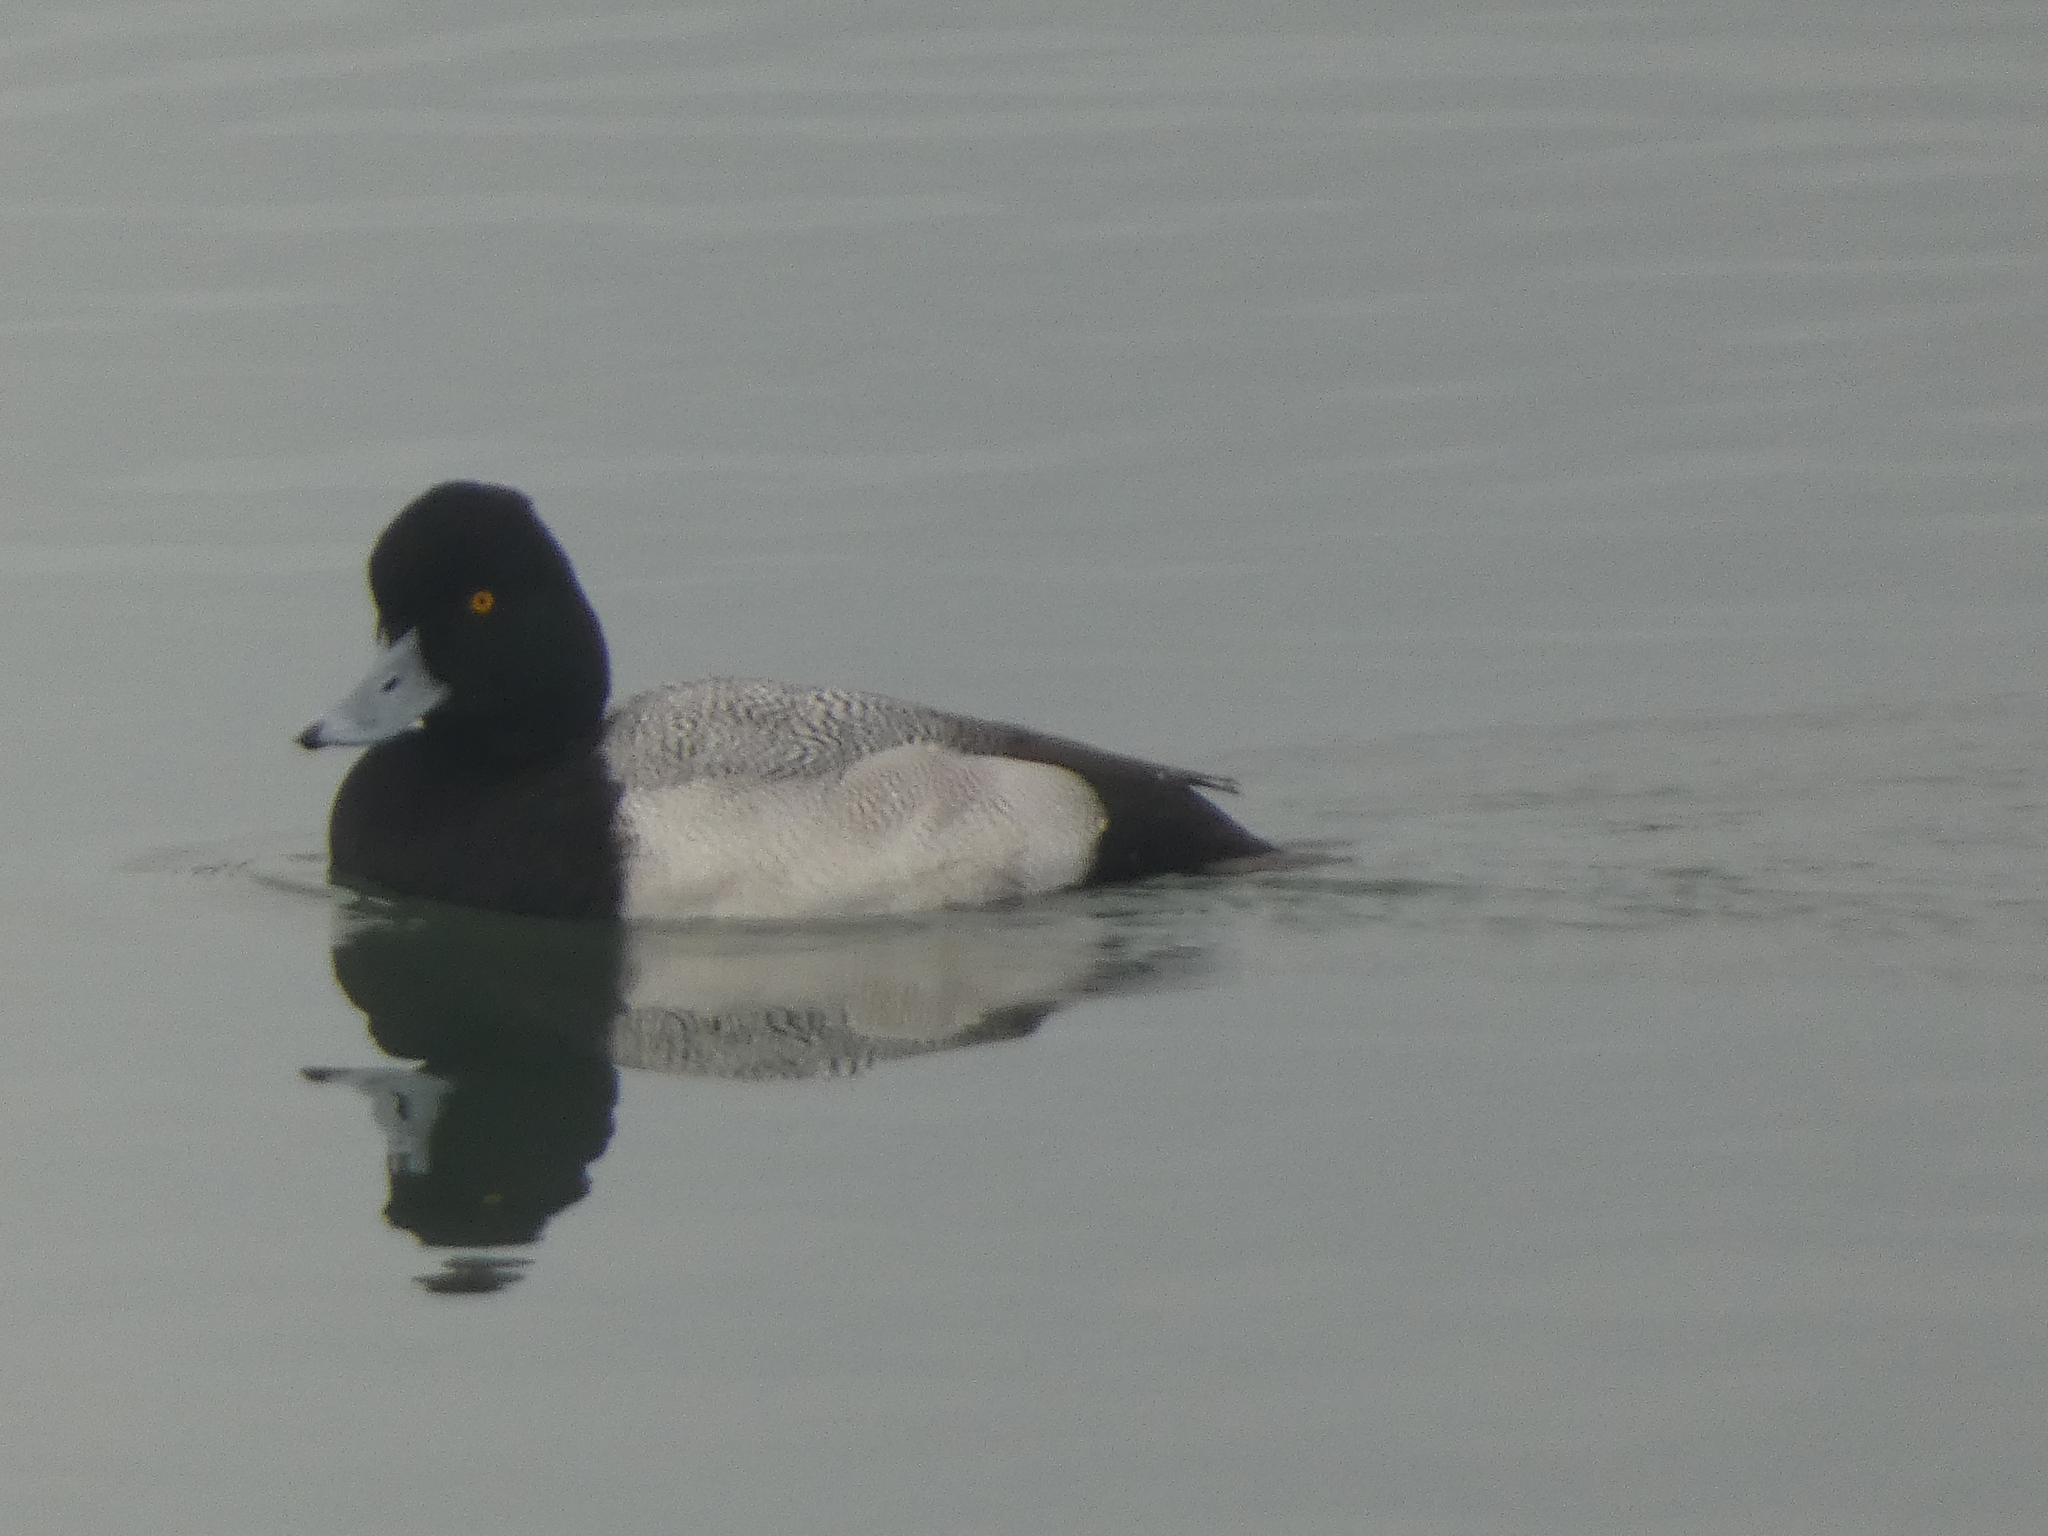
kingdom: Animalia
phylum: Chordata
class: Aves
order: Anseriformes
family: Anatidae
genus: Aythya
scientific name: Aythya affinis
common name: Lesser scaup
